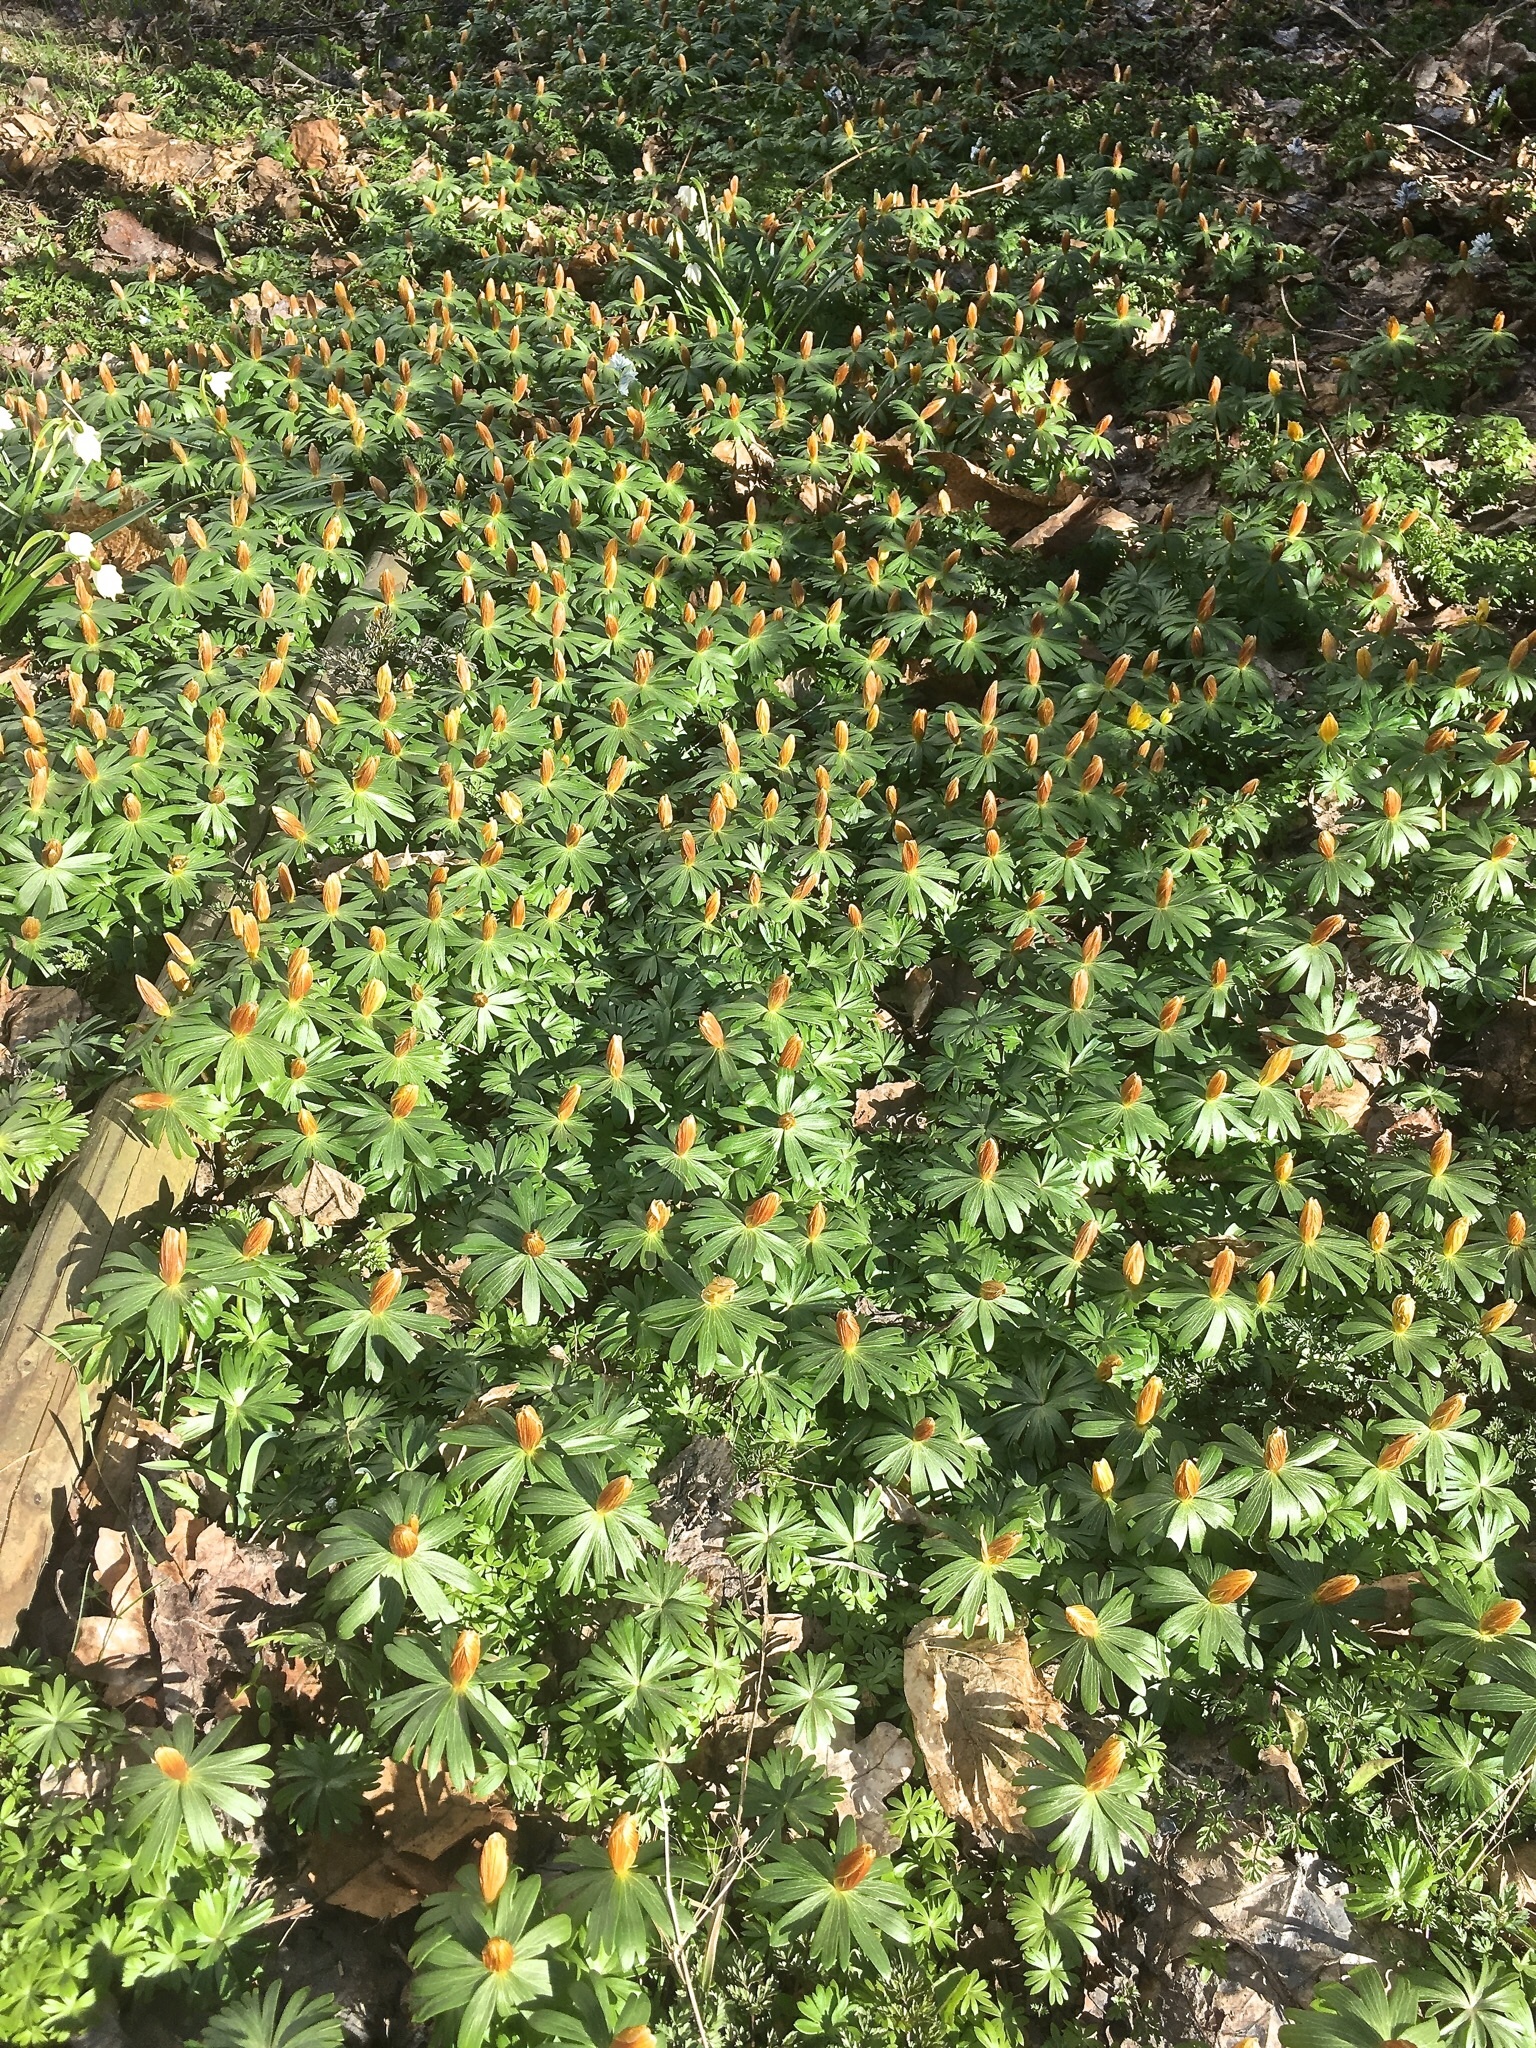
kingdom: Plantae
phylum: Tracheophyta
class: Magnoliopsida
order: Ranunculales
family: Ranunculaceae
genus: Eranthis
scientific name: Eranthis hyemalis
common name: Winter aconite
